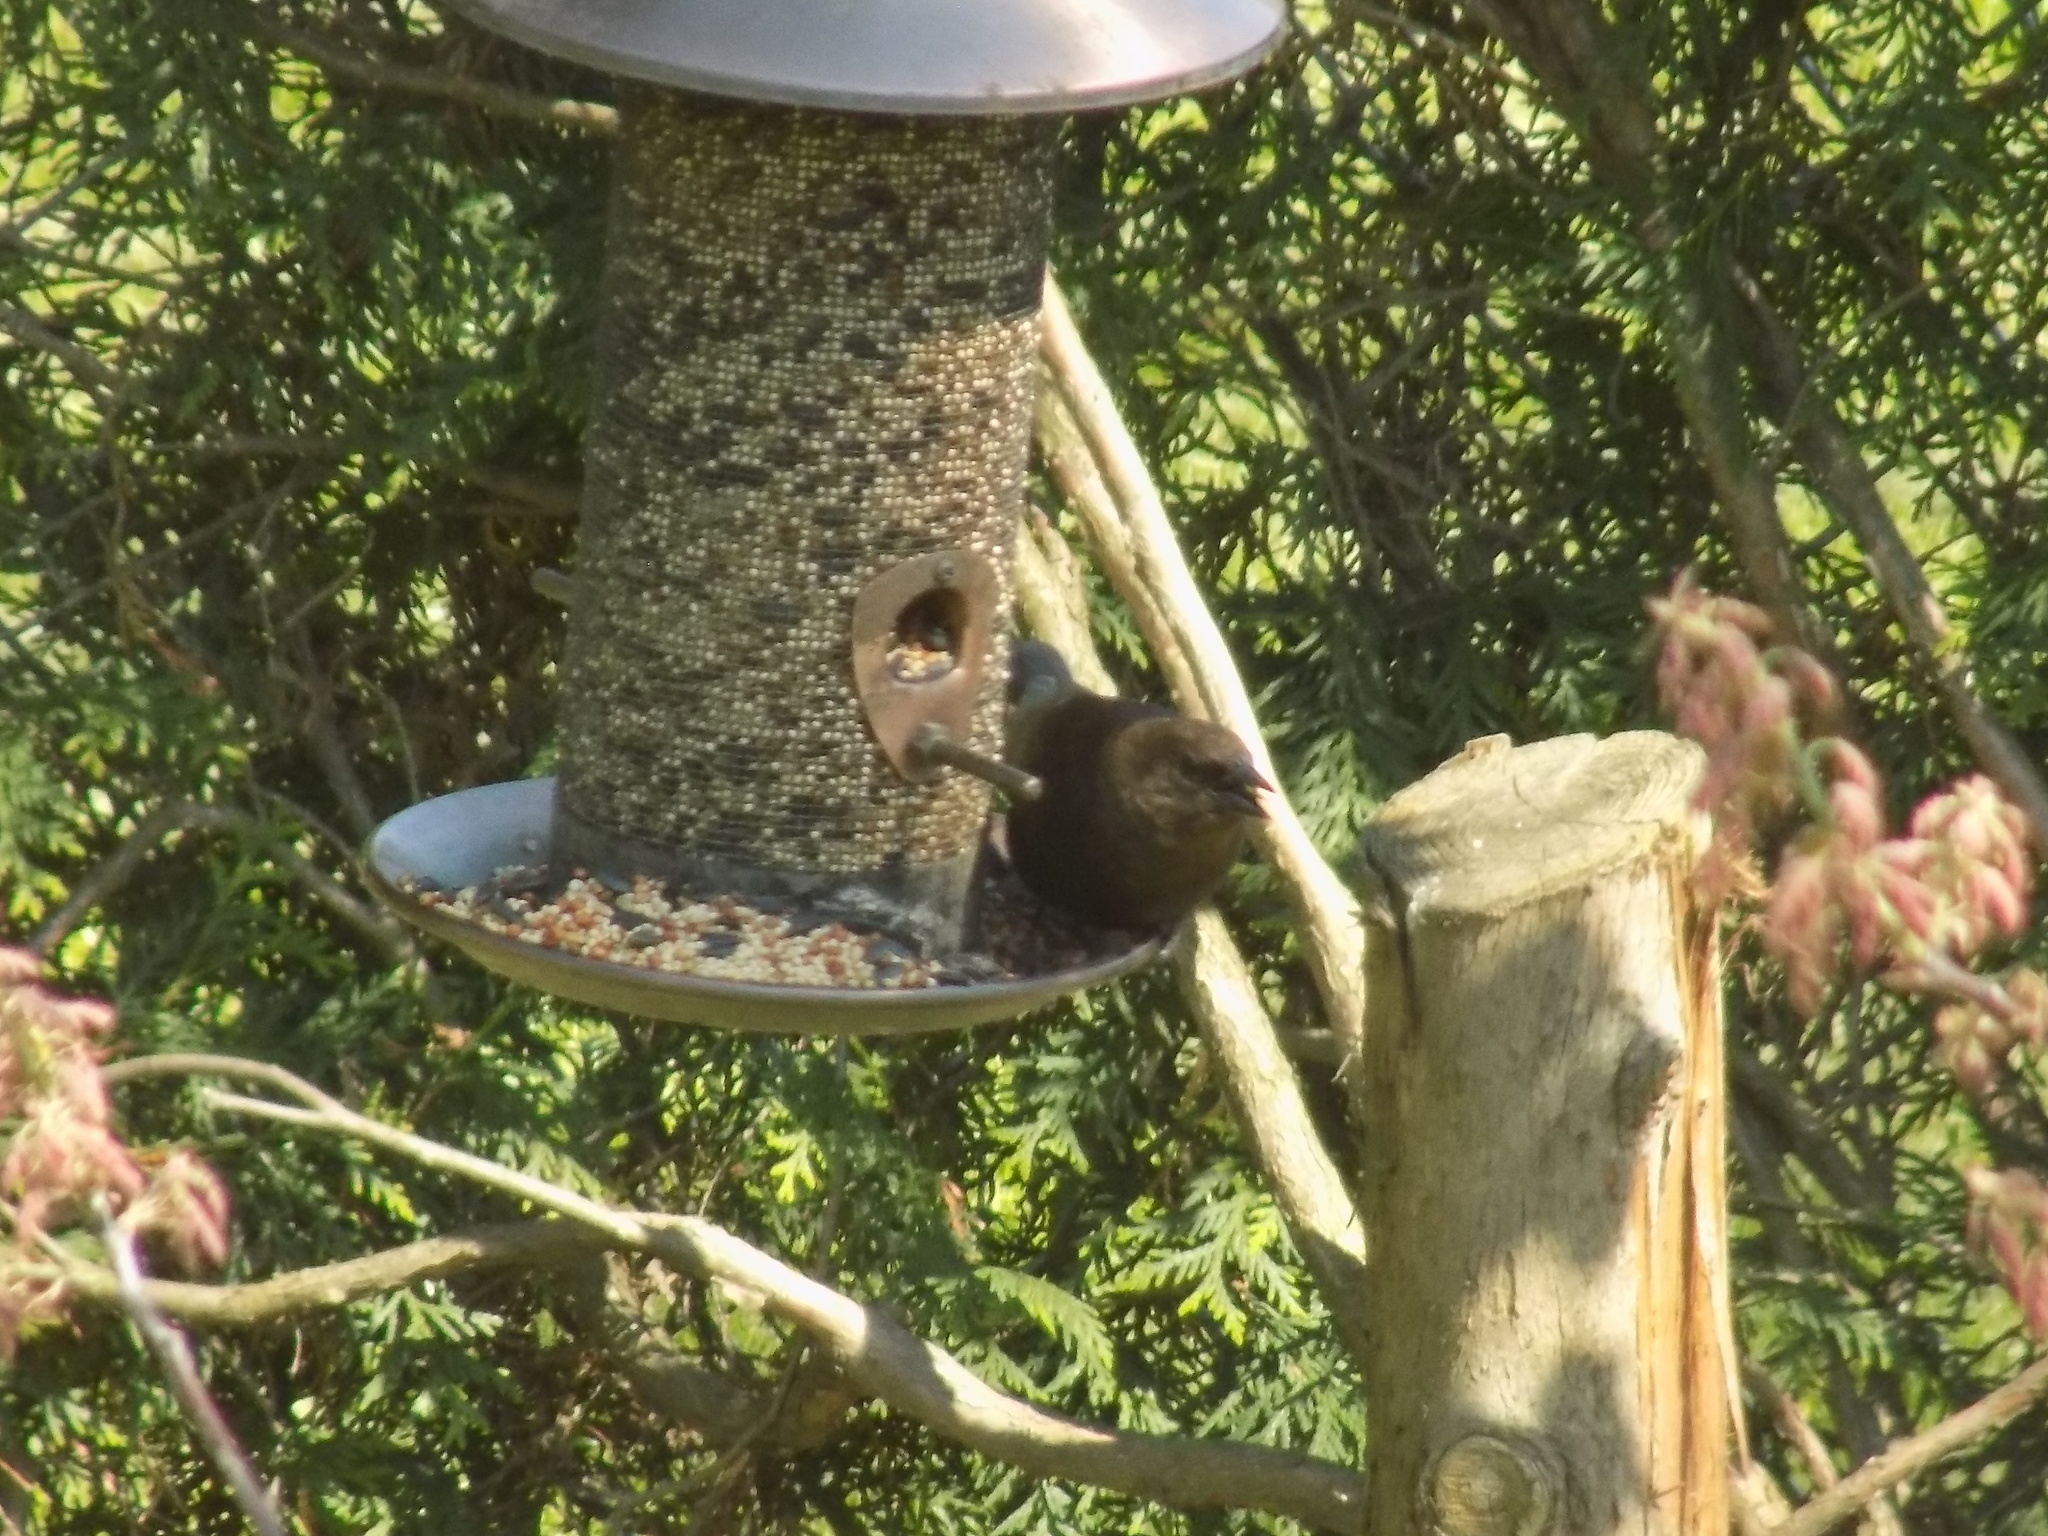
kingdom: Animalia
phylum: Chordata
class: Aves
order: Passeriformes
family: Icteridae
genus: Molothrus
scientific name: Molothrus ater
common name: Brown-headed cowbird
